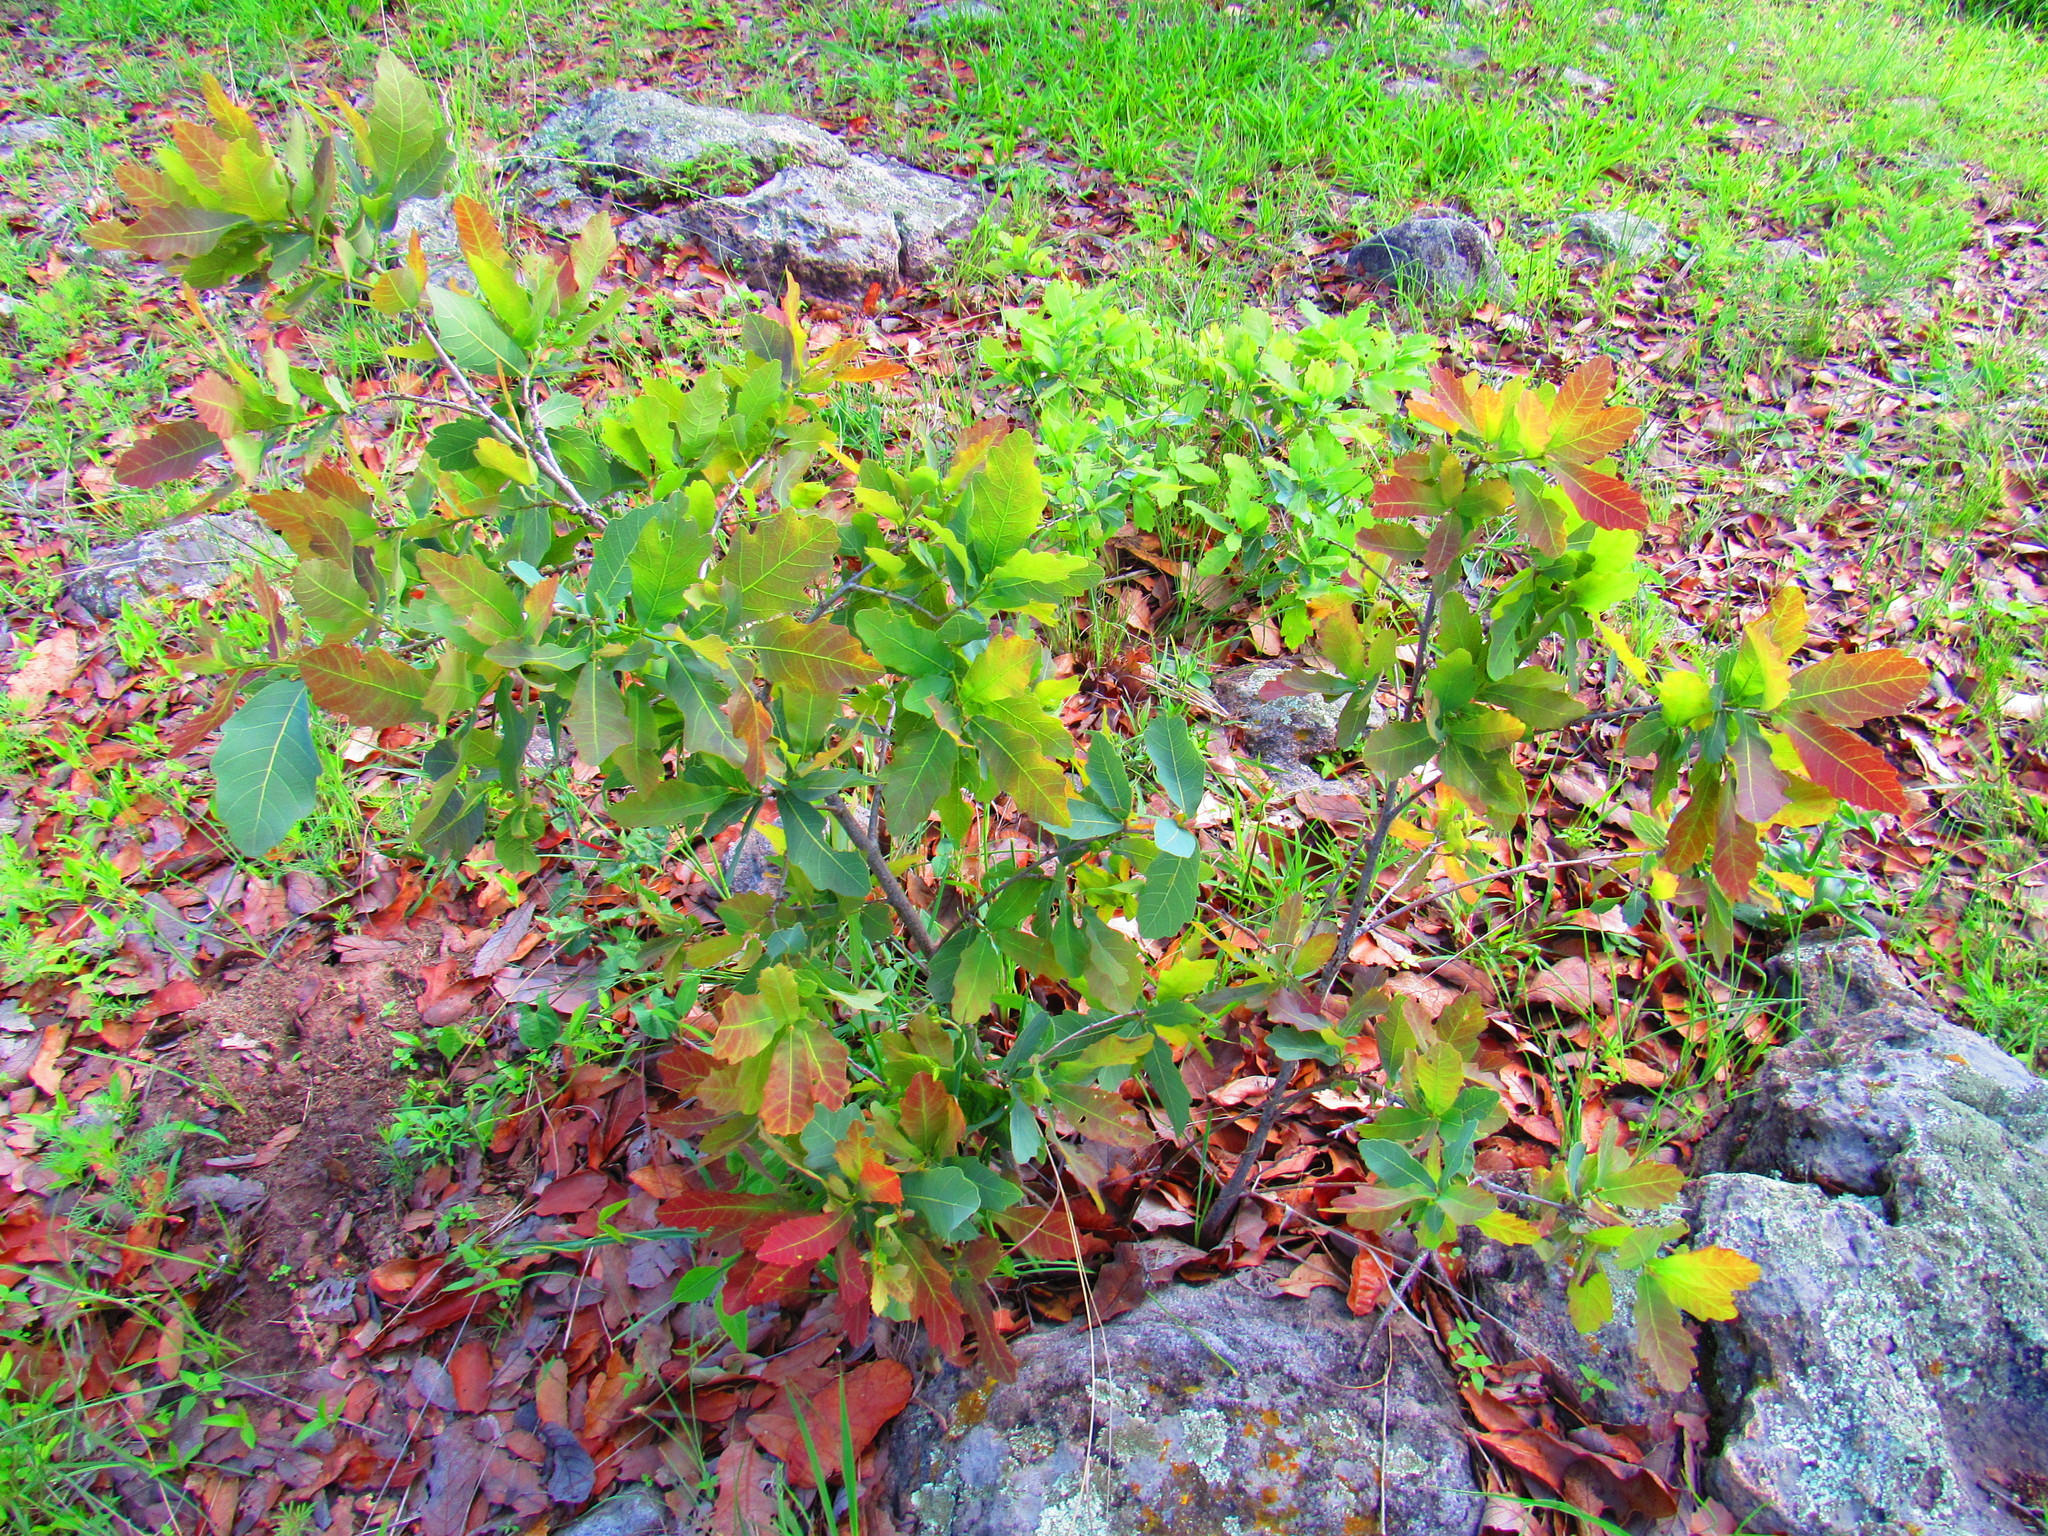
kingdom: Plantae
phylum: Tracheophyta
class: Magnoliopsida
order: Fagales
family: Fagaceae
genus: Quercus
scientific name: Quercus
